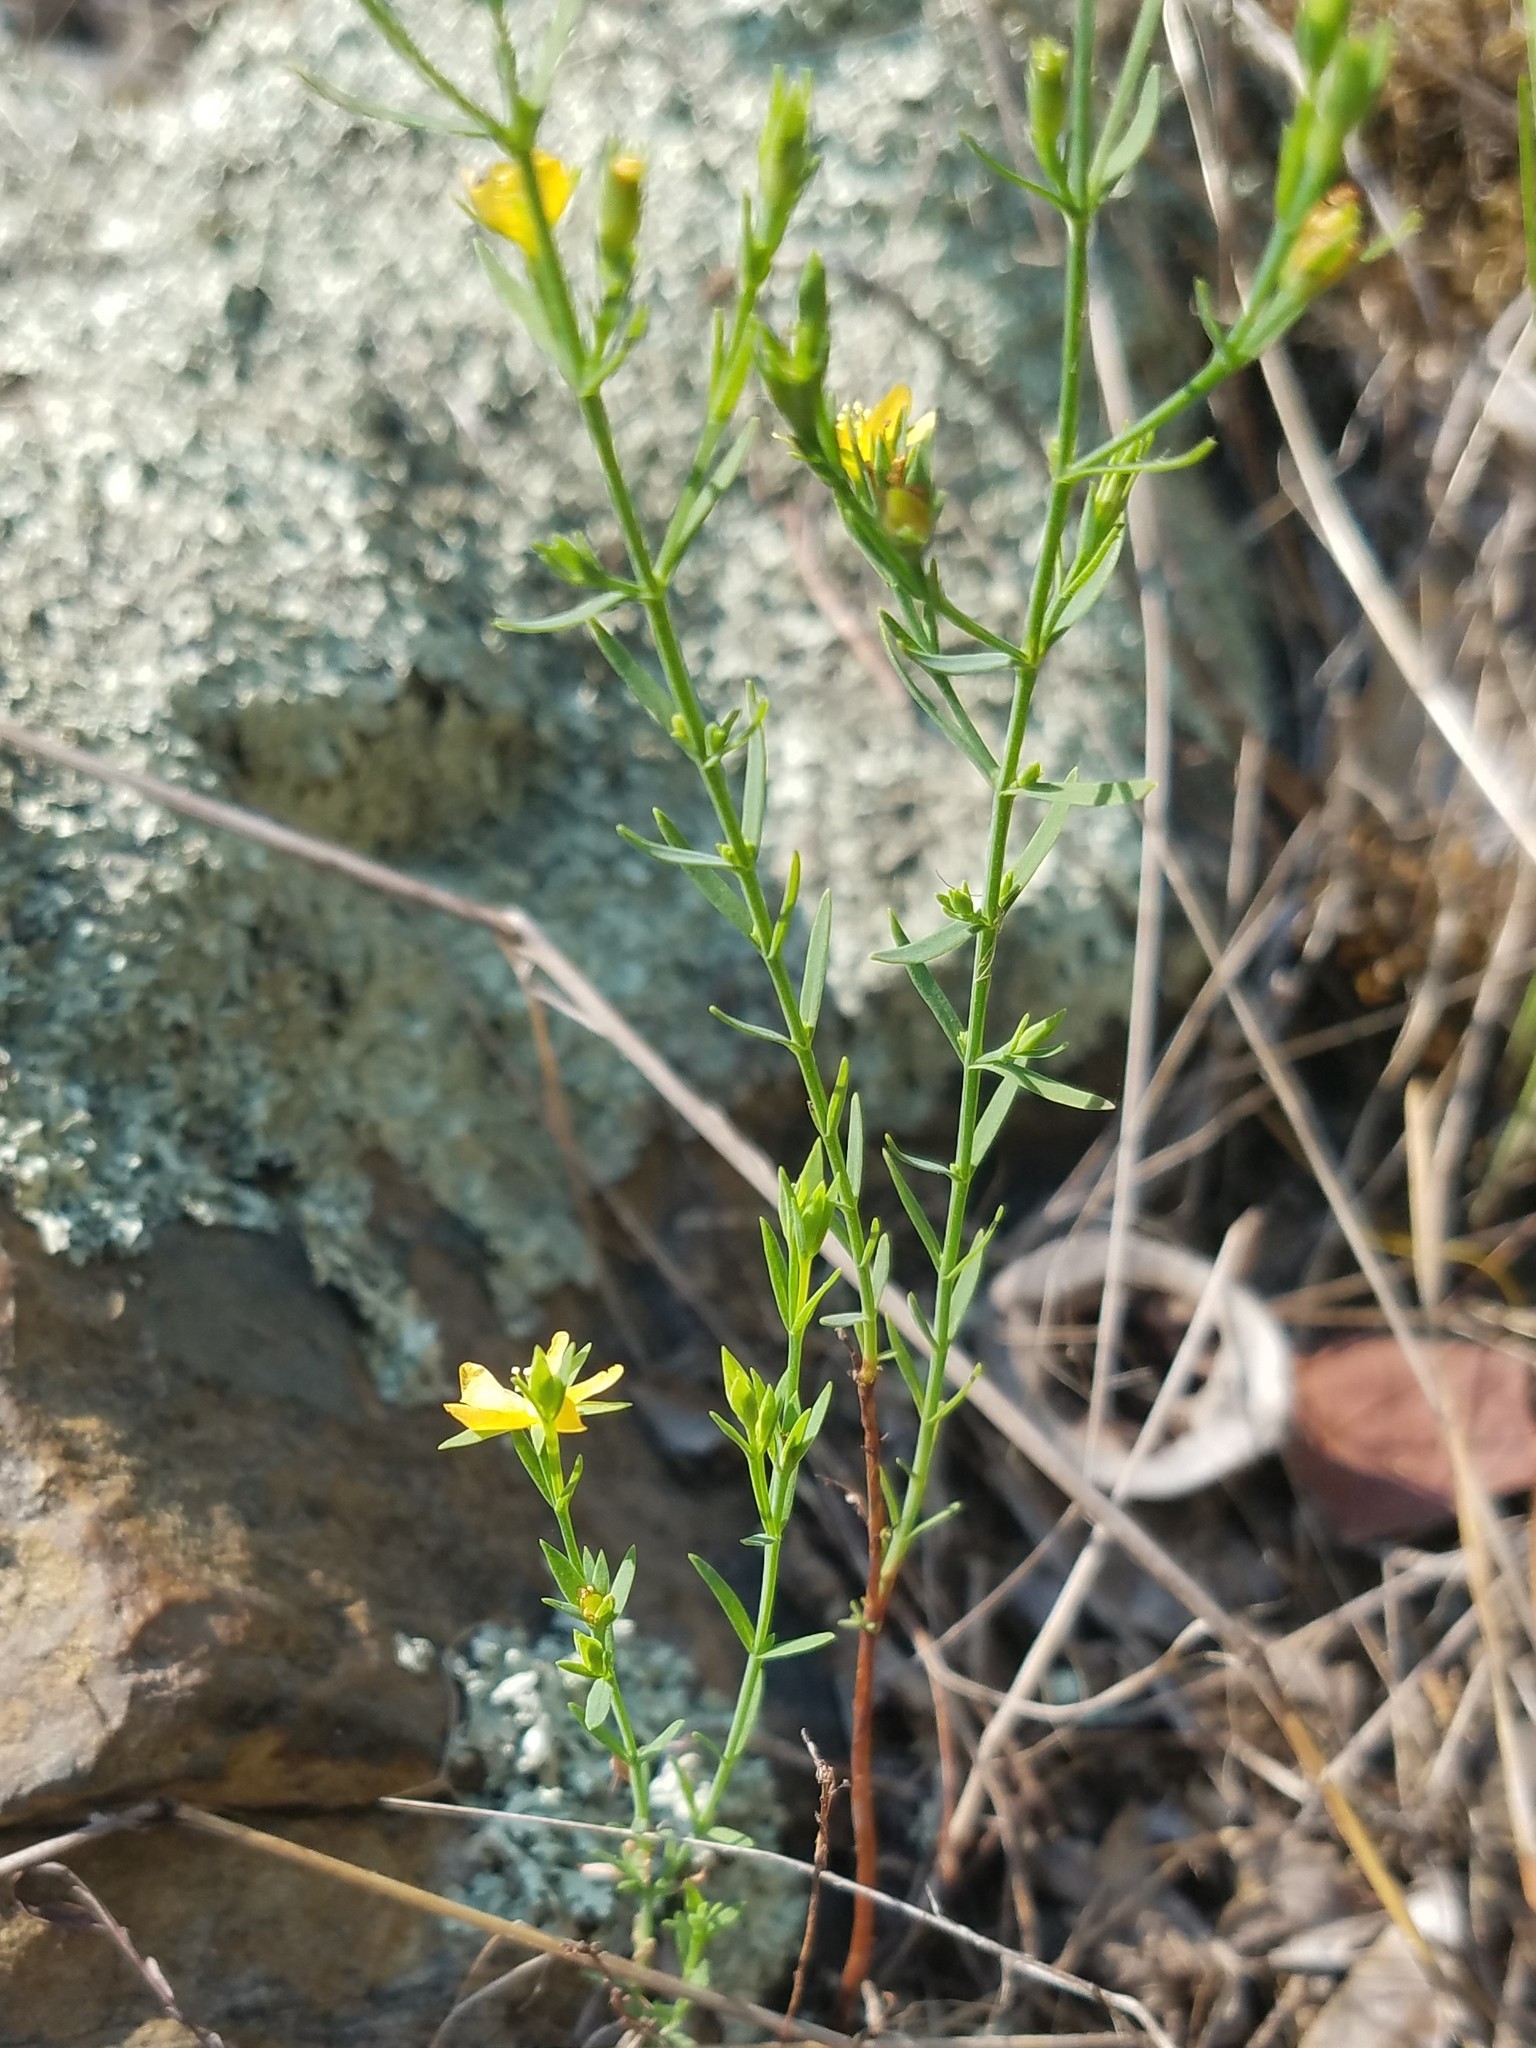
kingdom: Plantae
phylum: Tracheophyta
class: Magnoliopsida
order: Malpighiales
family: Hypericaceae
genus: Hypericum
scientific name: Hypericum drummondii
